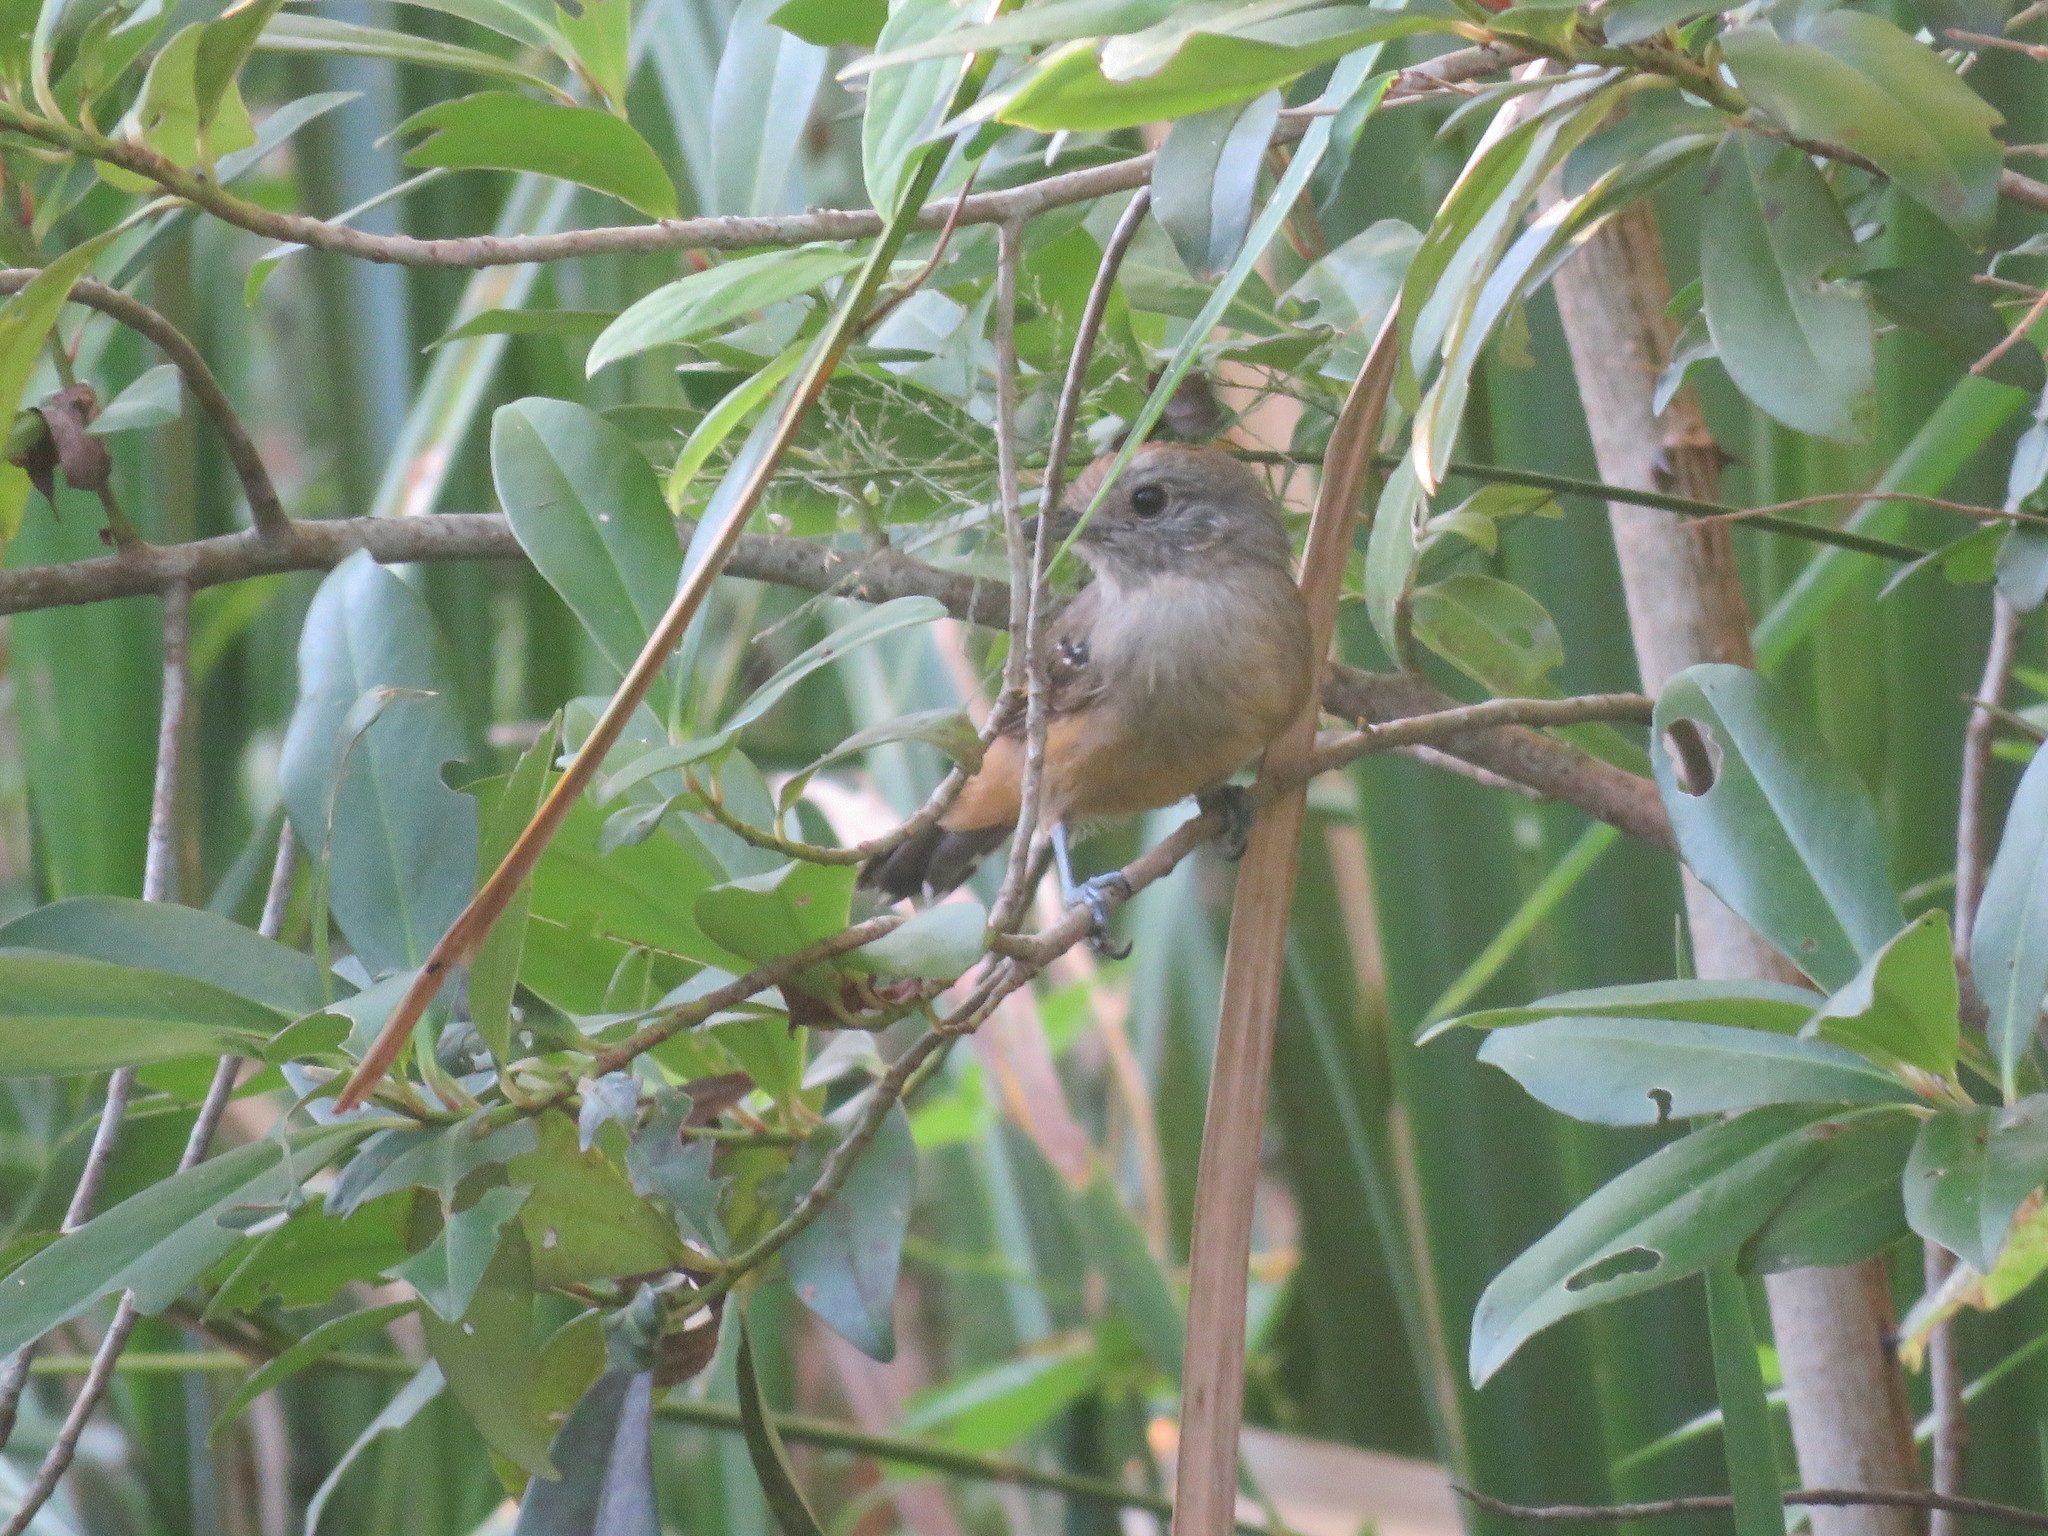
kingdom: Animalia
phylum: Chordata
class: Aves
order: Passeriformes
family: Thamnophilidae
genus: Thamnophilus
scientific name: Thamnophilus caerulescens
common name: Variable antshrike
